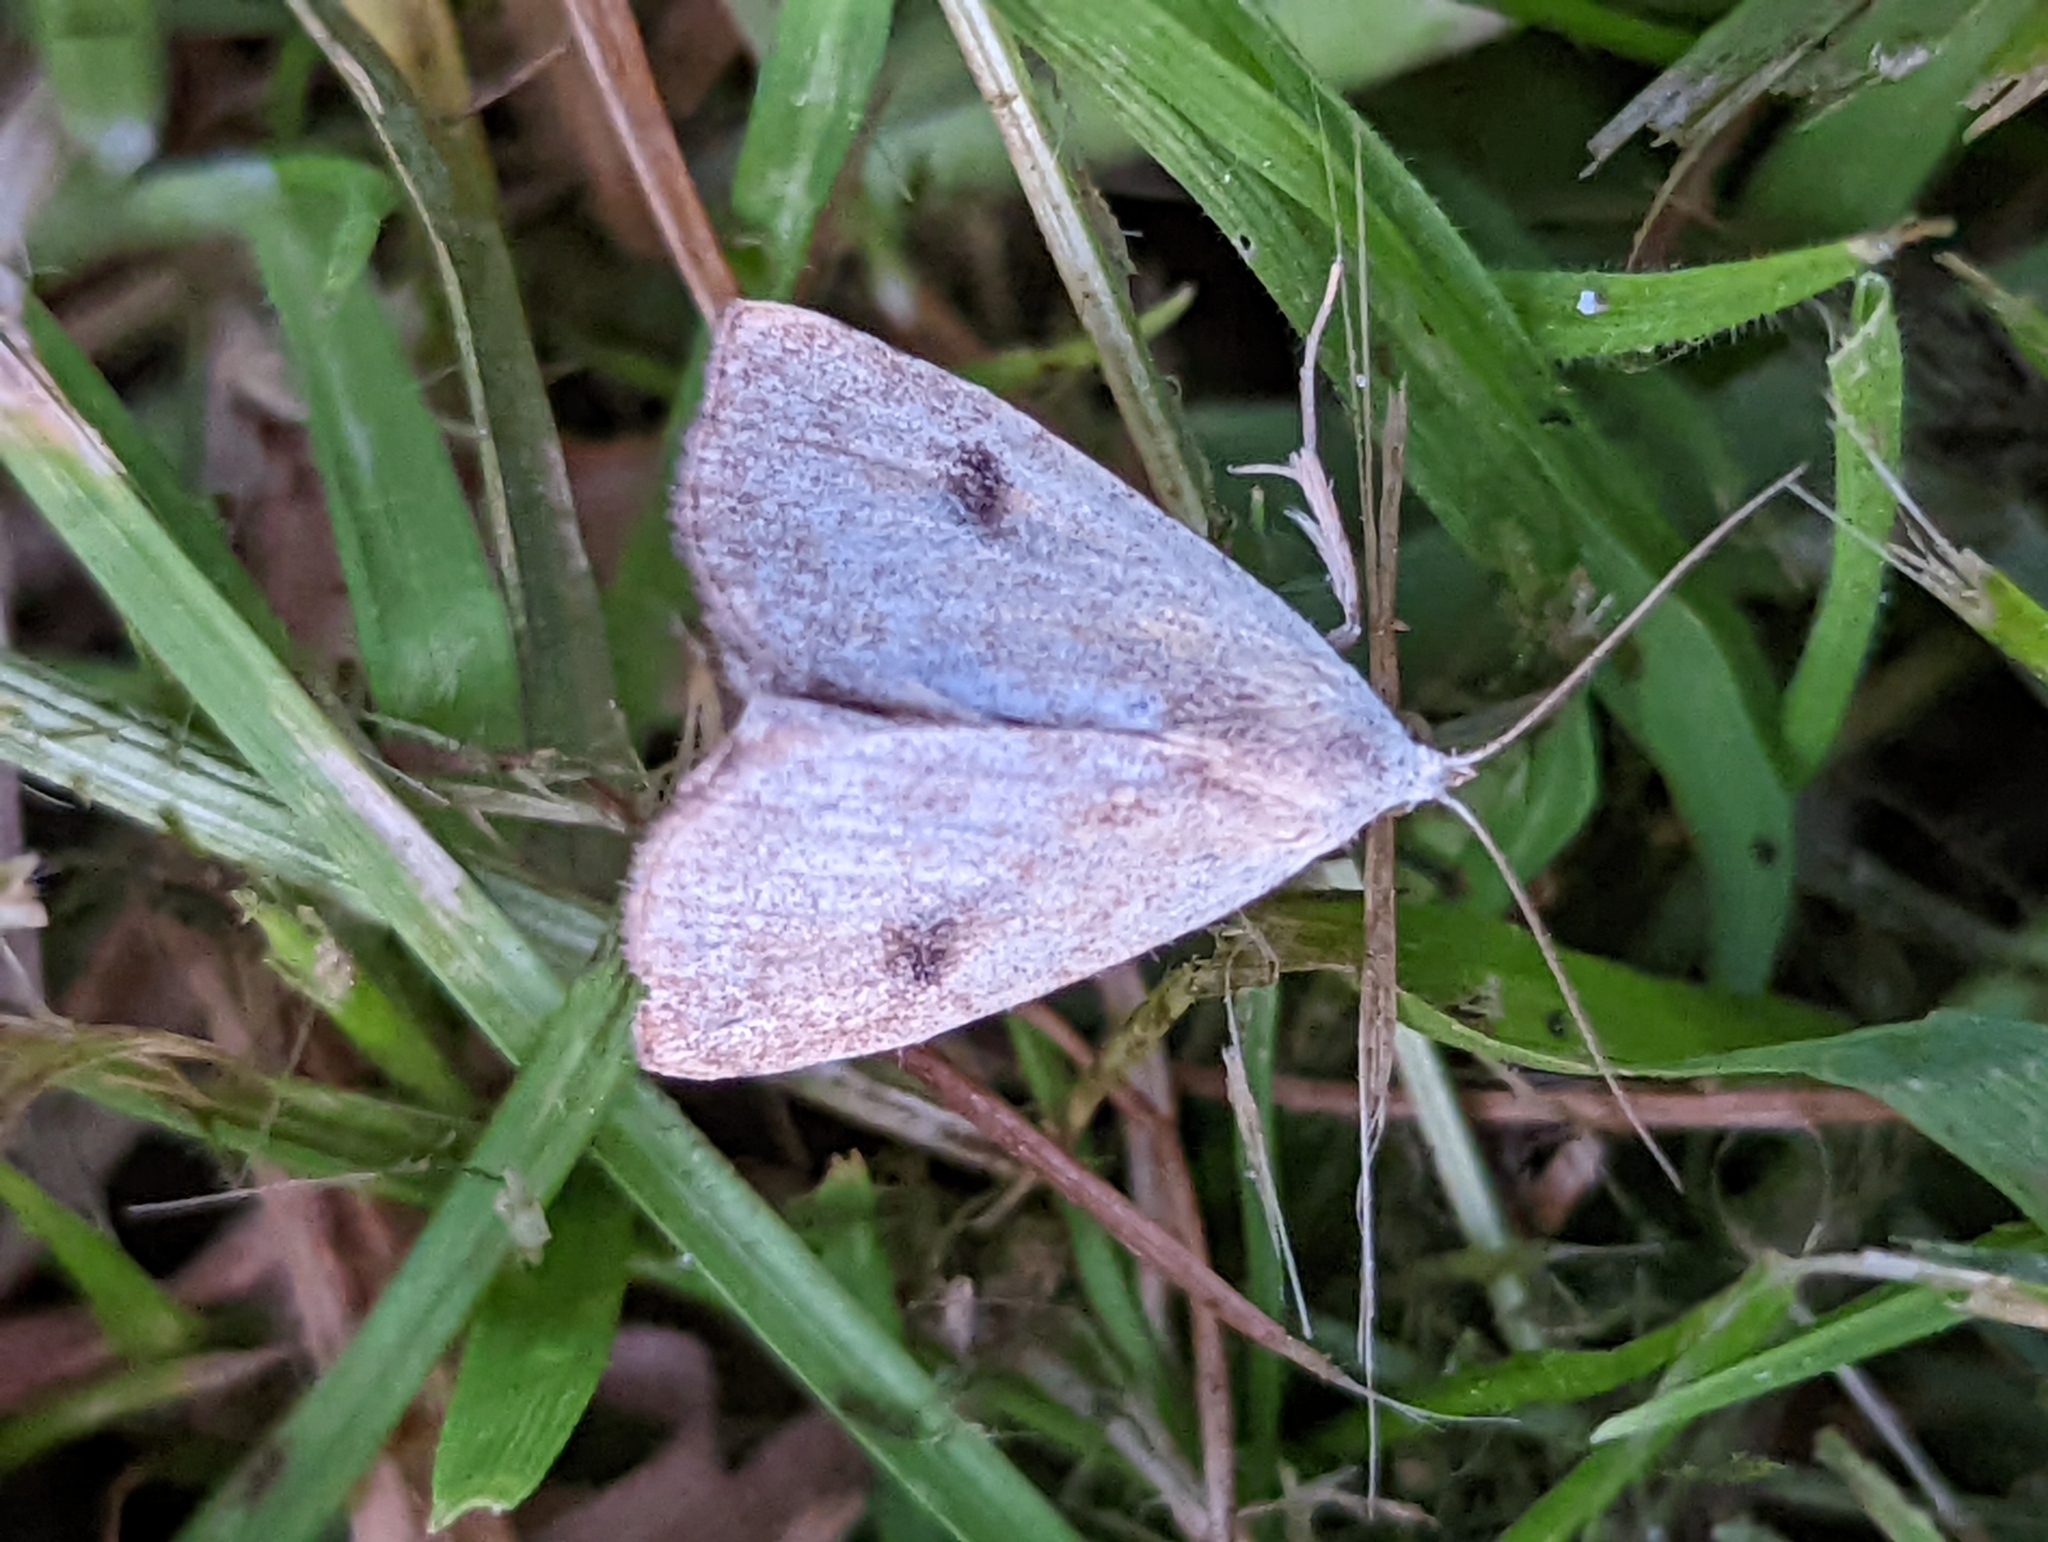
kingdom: Animalia
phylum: Arthropoda
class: Insecta
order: Lepidoptera
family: Erebidae
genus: Rivula
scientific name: Rivula sericealis
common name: Straw dot
